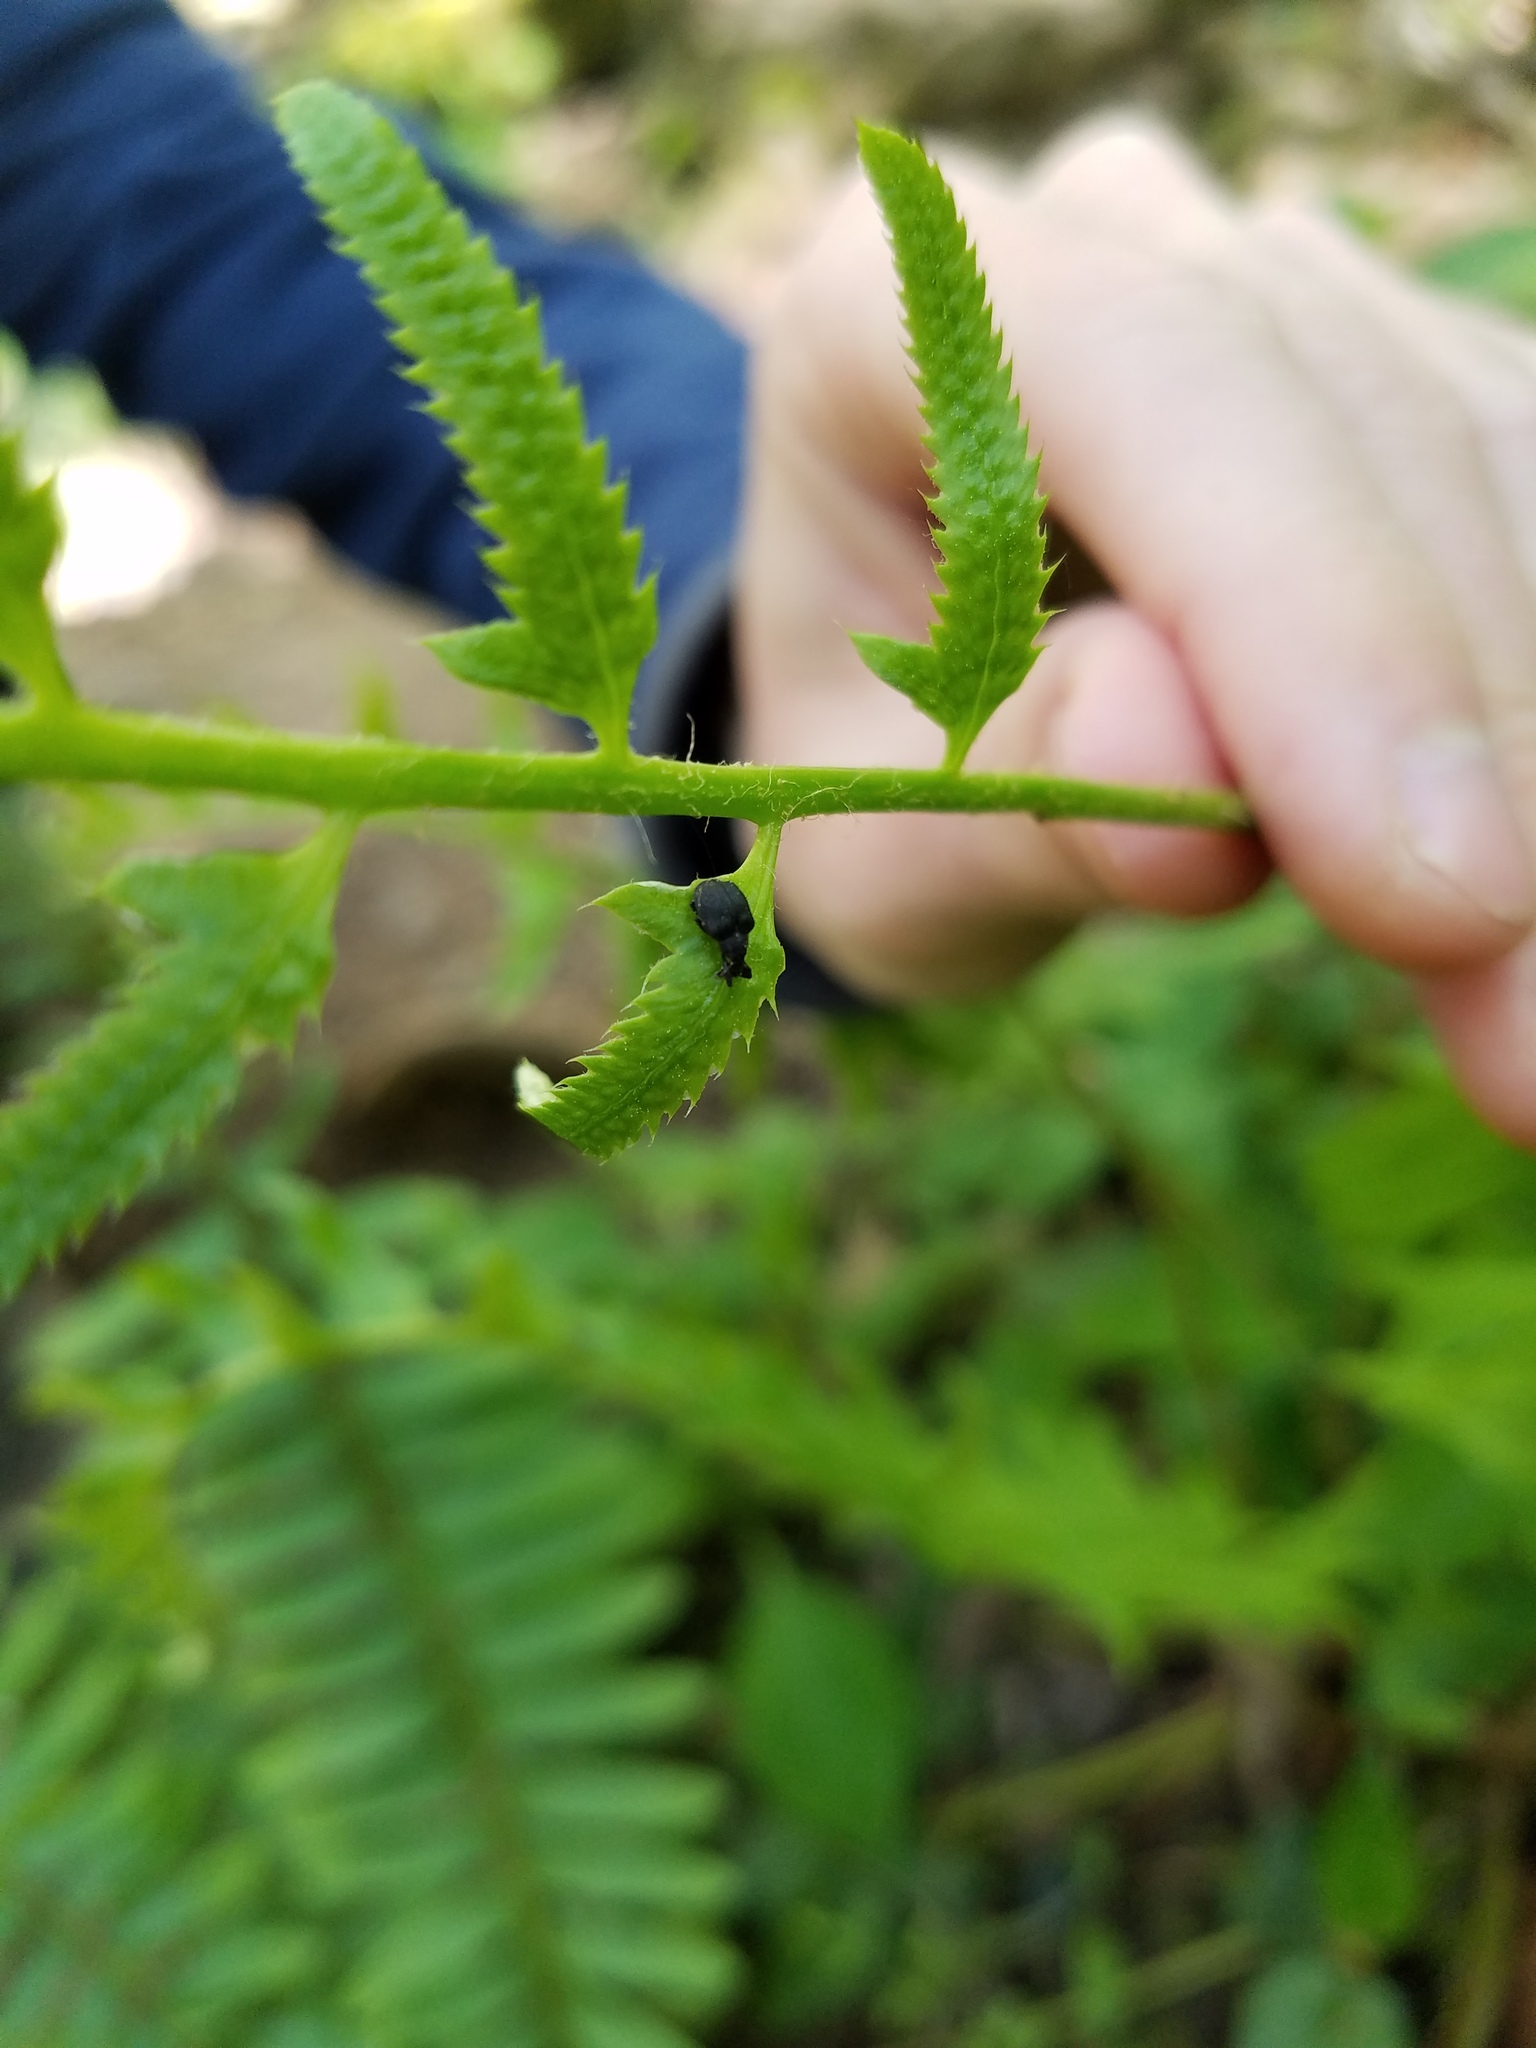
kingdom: Animalia
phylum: Arthropoda
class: Insecta
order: Coleoptera
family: Curculionidae
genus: Odontopus
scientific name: Odontopus calceatus
